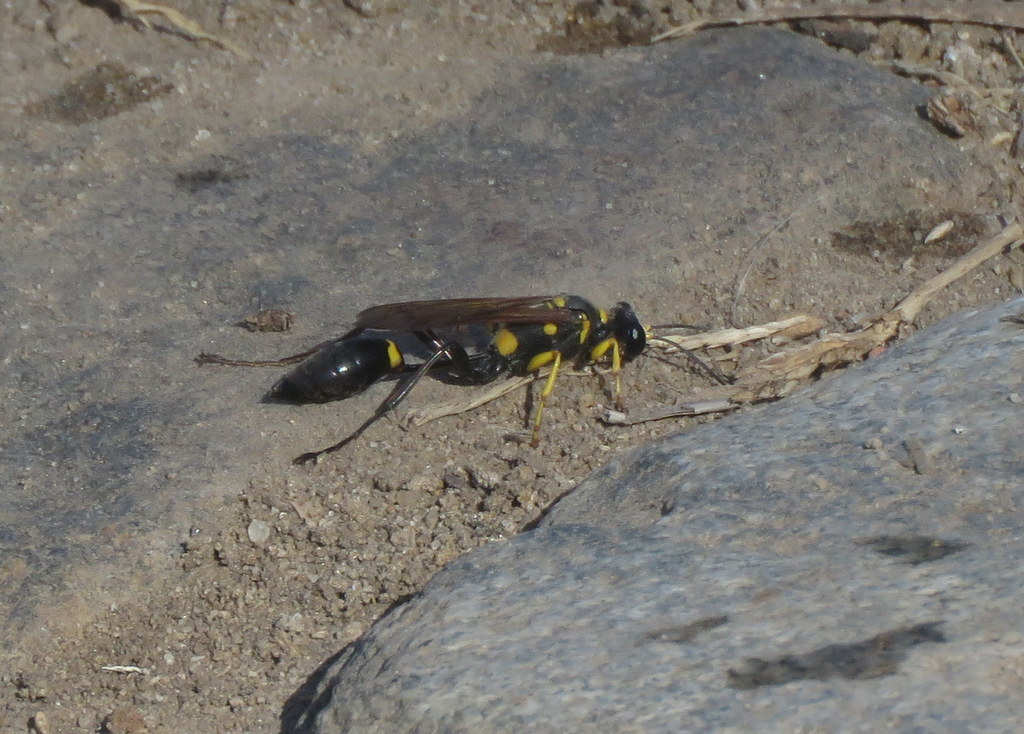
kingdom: Animalia
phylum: Arthropoda
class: Insecta
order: Hymenoptera
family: Sphecidae
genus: Sceliphron
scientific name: Sceliphron asiaticum
